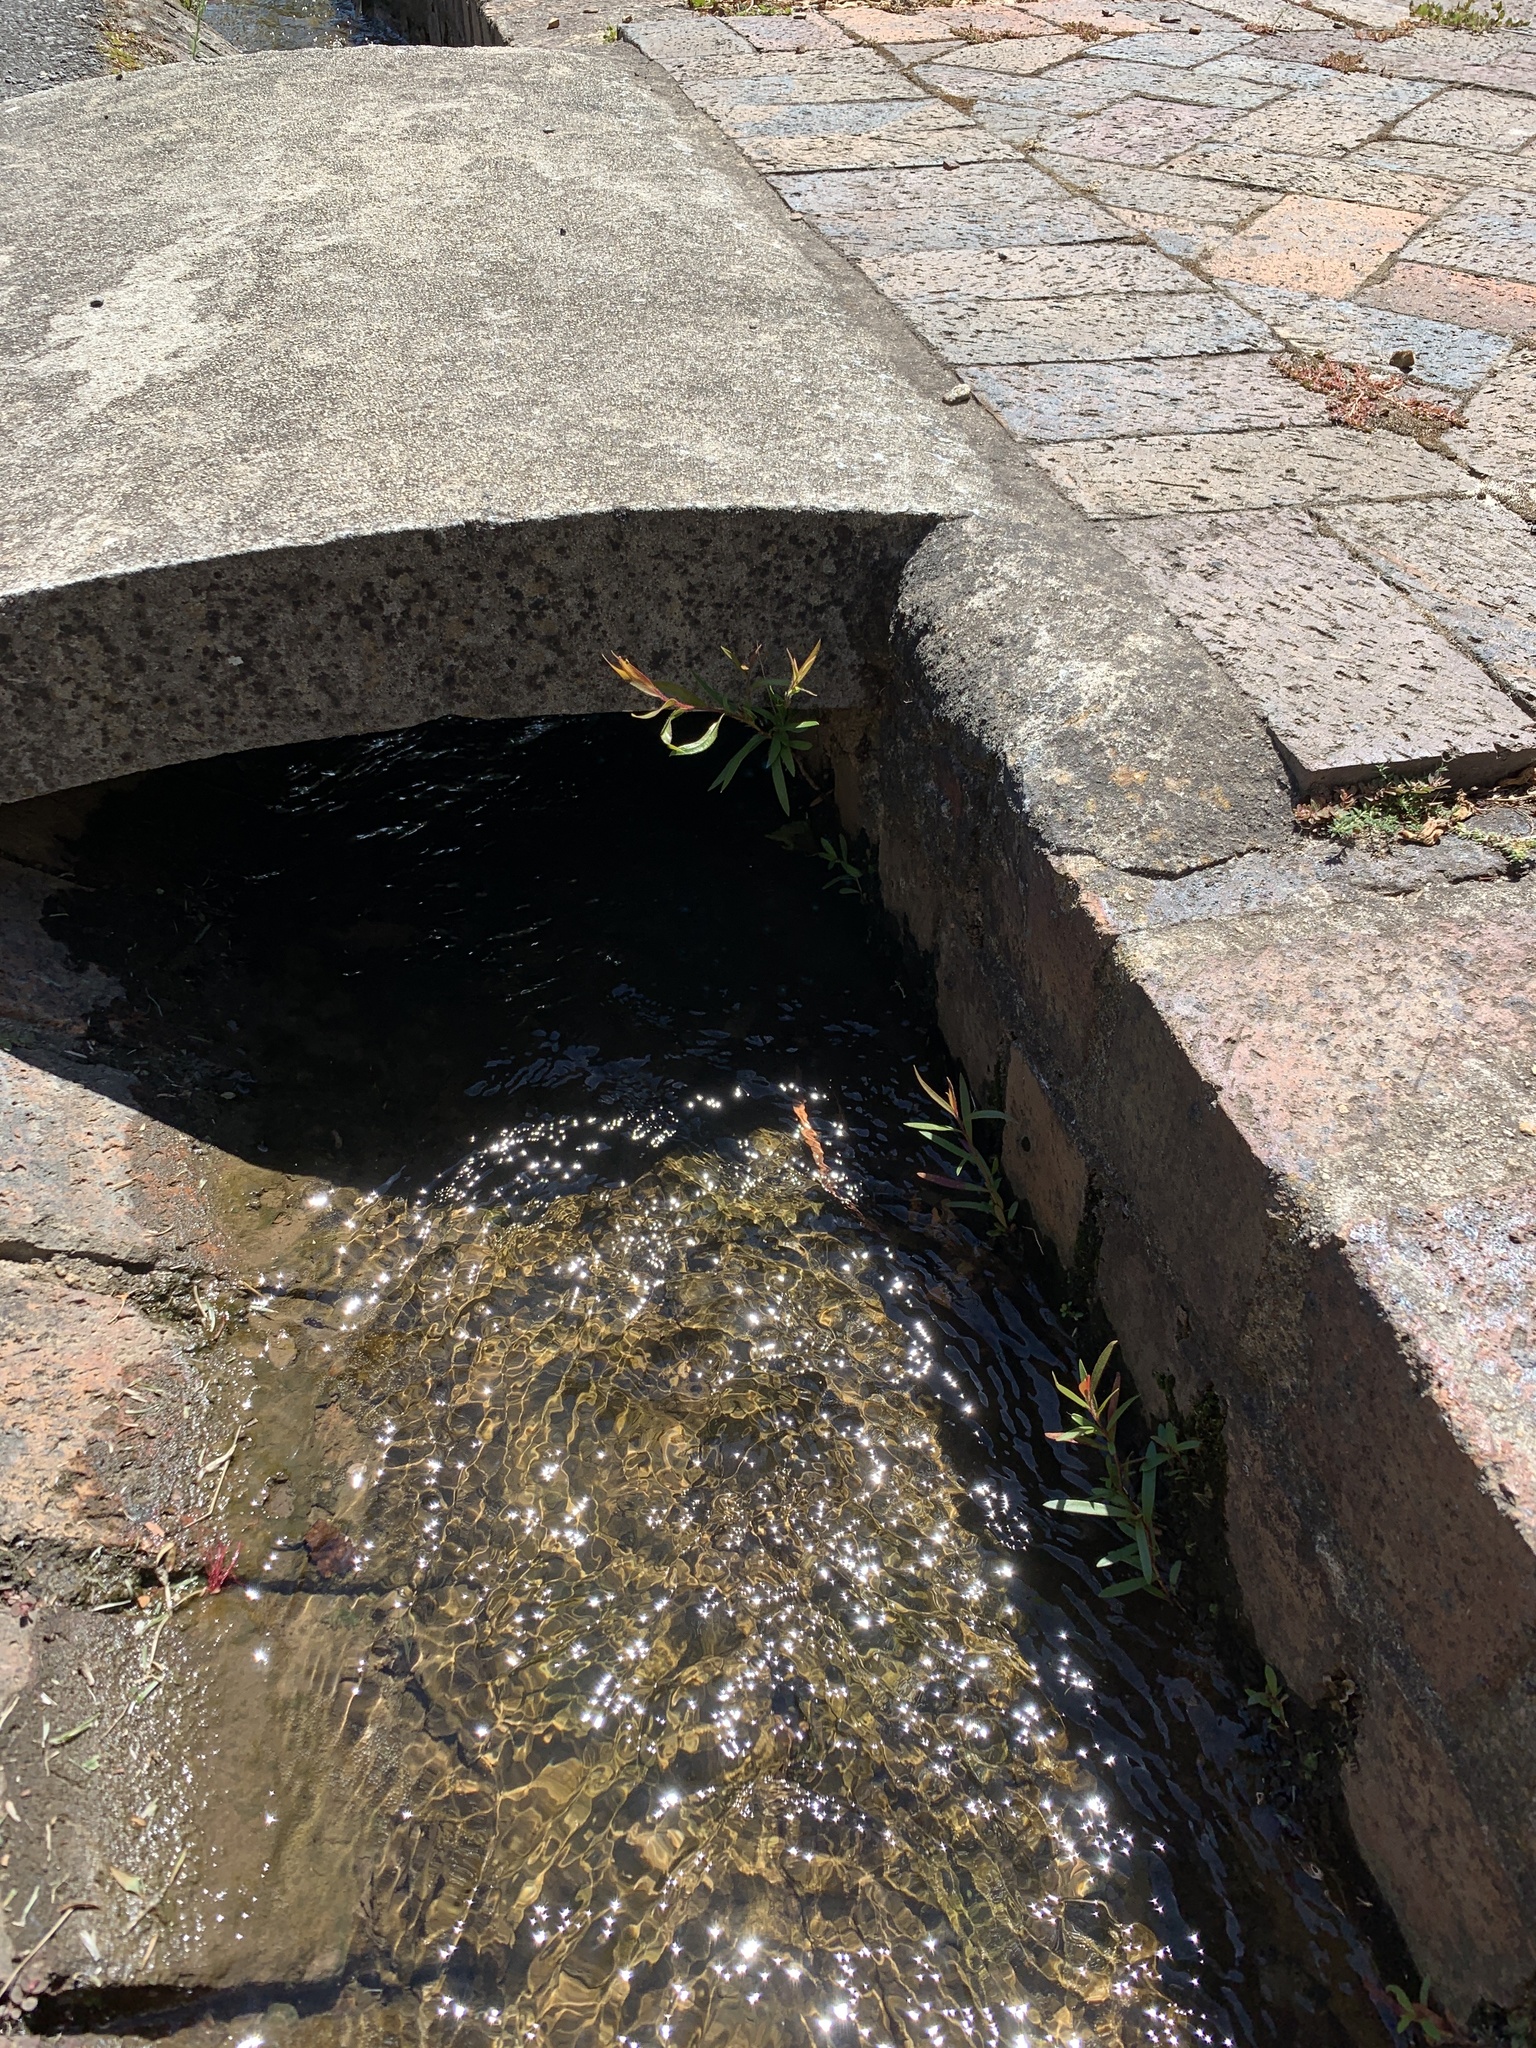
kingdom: Plantae
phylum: Tracheophyta
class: Magnoliopsida
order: Myrtales
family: Myrtaceae
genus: Callistemon
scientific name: Callistemon viminalis
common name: Drooping bottlebrush
